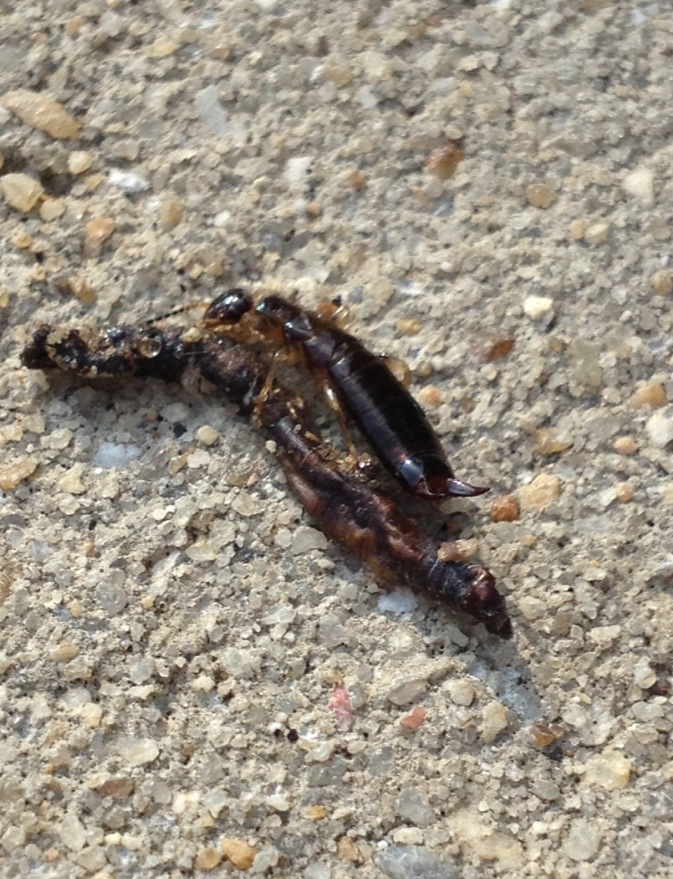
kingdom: Animalia
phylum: Arthropoda
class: Insecta
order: Dermaptera
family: Anisolabididae
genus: Euborellia
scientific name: Euborellia annulipes
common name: Ringlegged earwig
